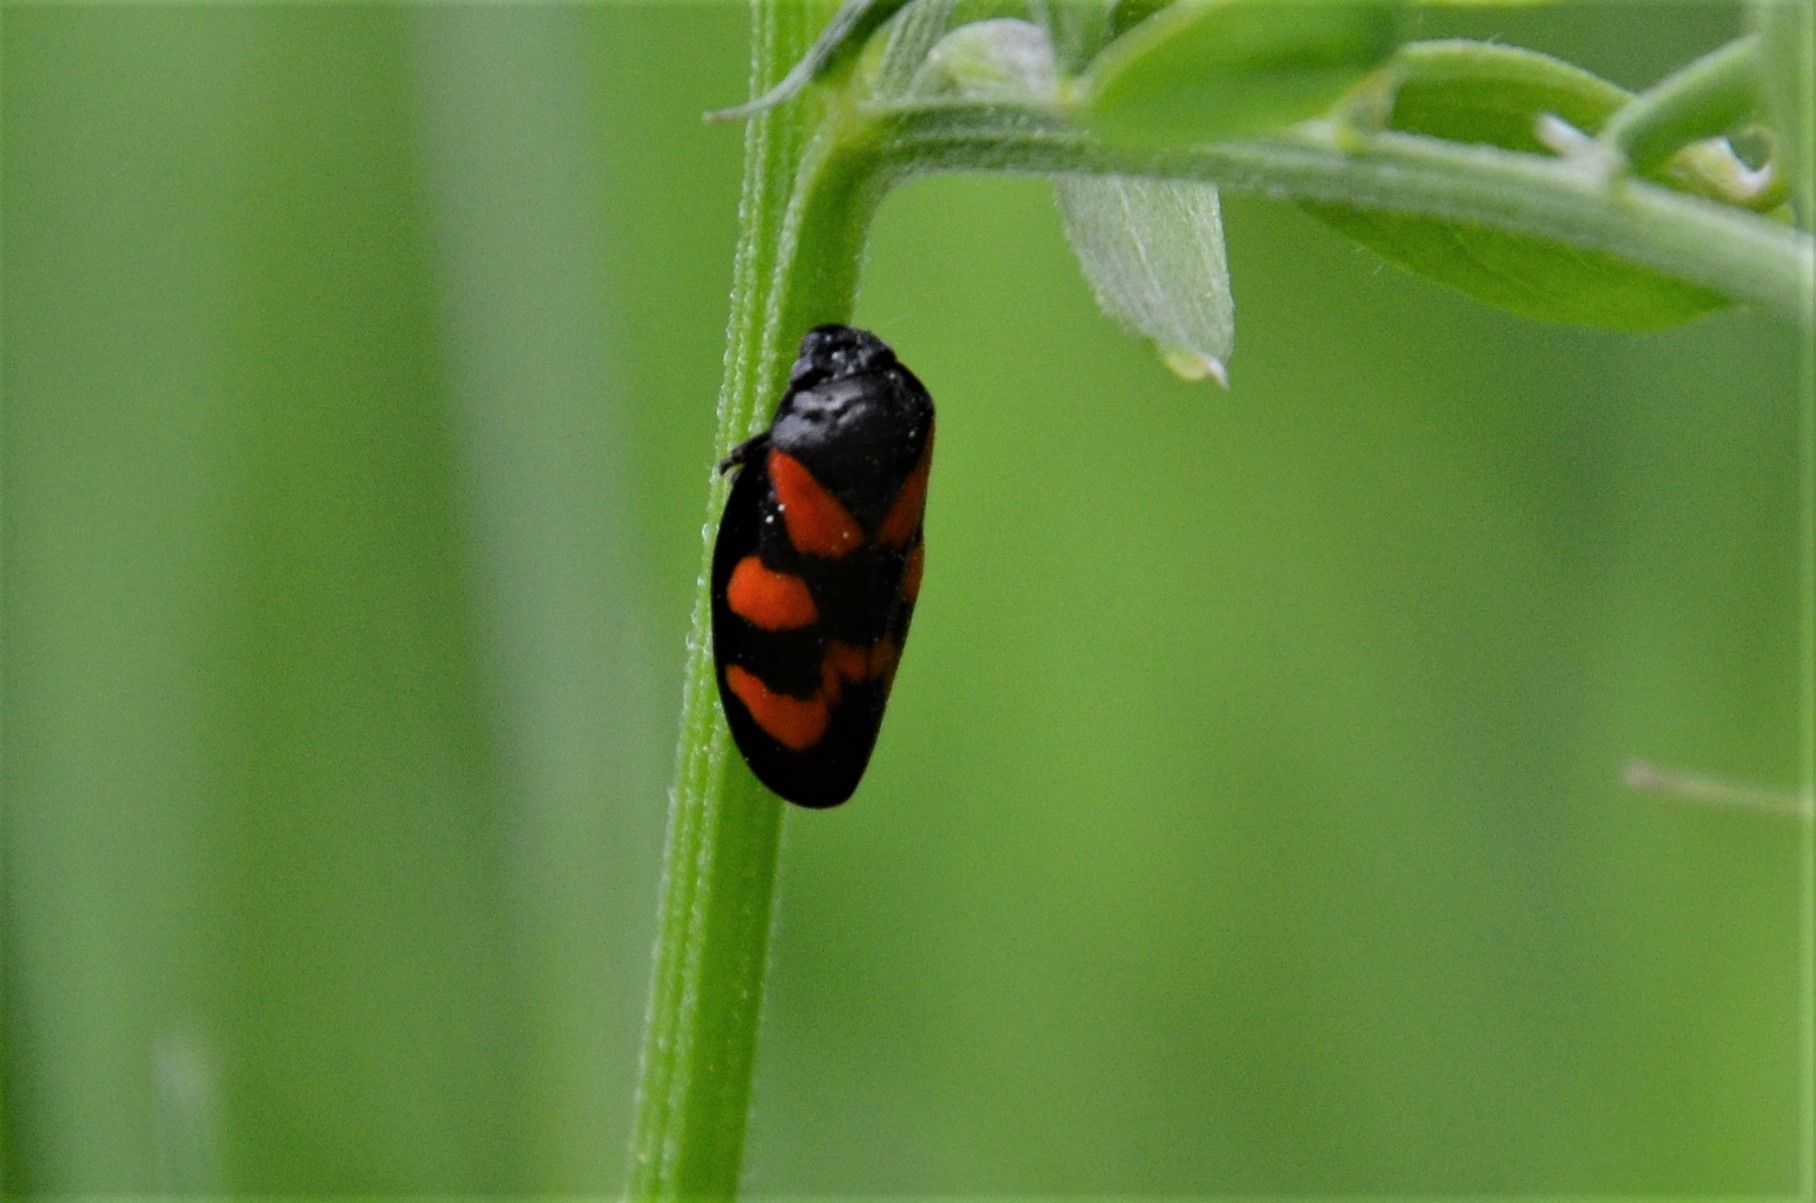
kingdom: Animalia
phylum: Arthropoda
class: Insecta
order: Hemiptera
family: Cercopidae
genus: Cercopis
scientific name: Cercopis vulnerata
